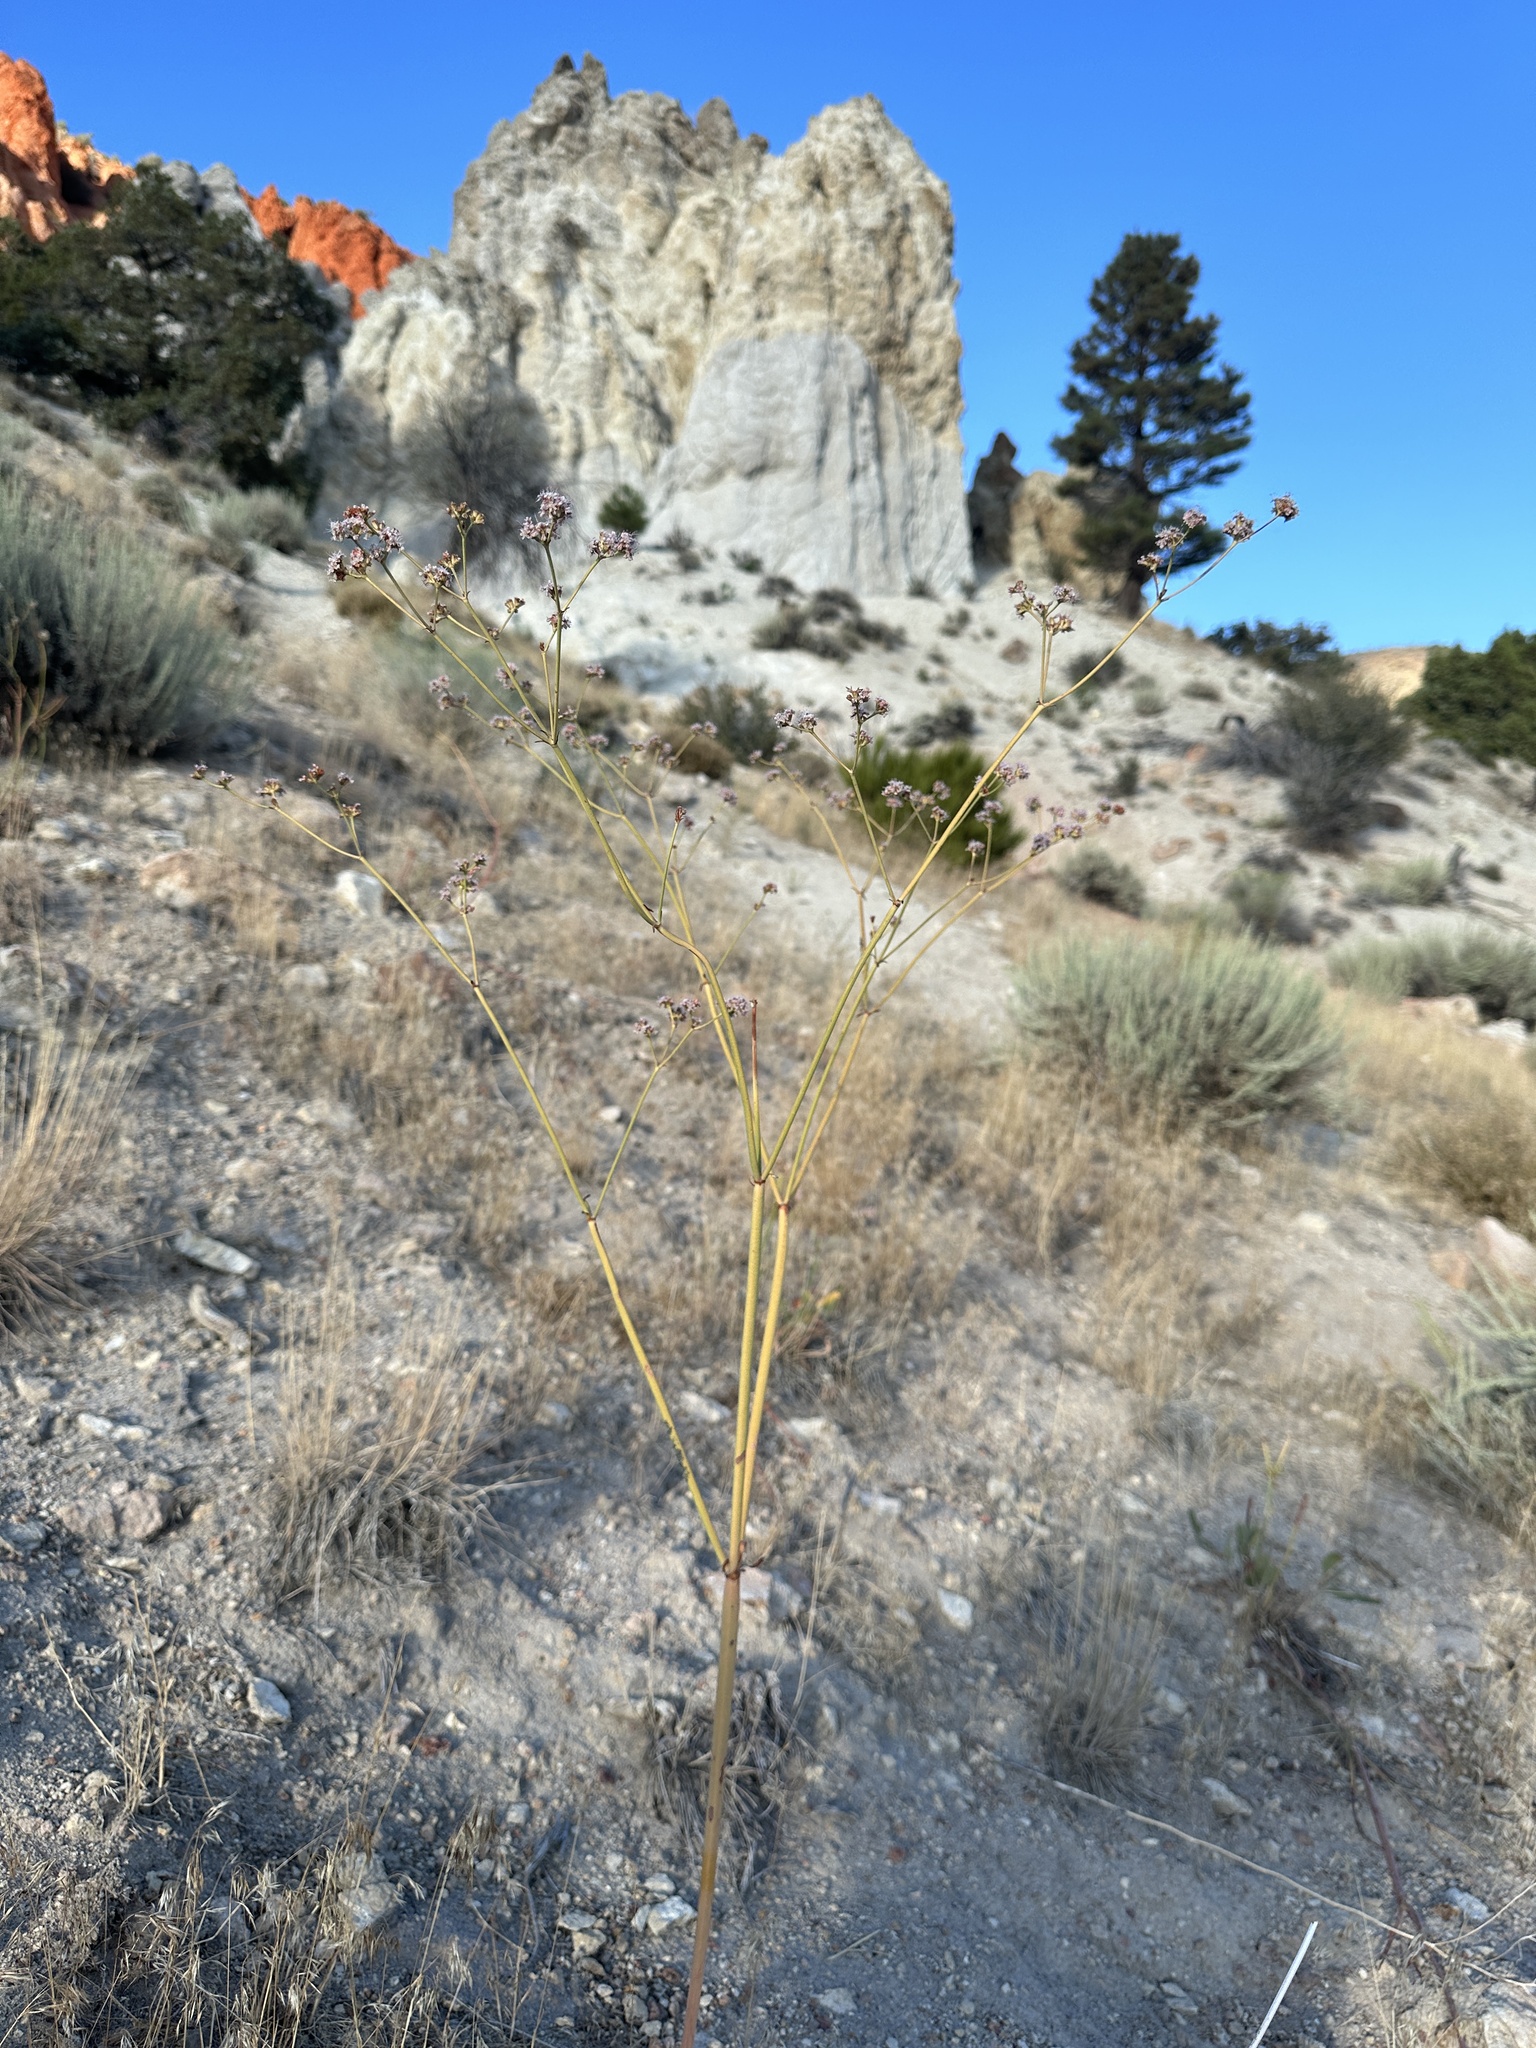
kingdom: Plantae
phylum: Tracheophyta
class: Magnoliopsida
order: Caryophyllales
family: Polygonaceae
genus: Eriogonum
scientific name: Eriogonum elatum
